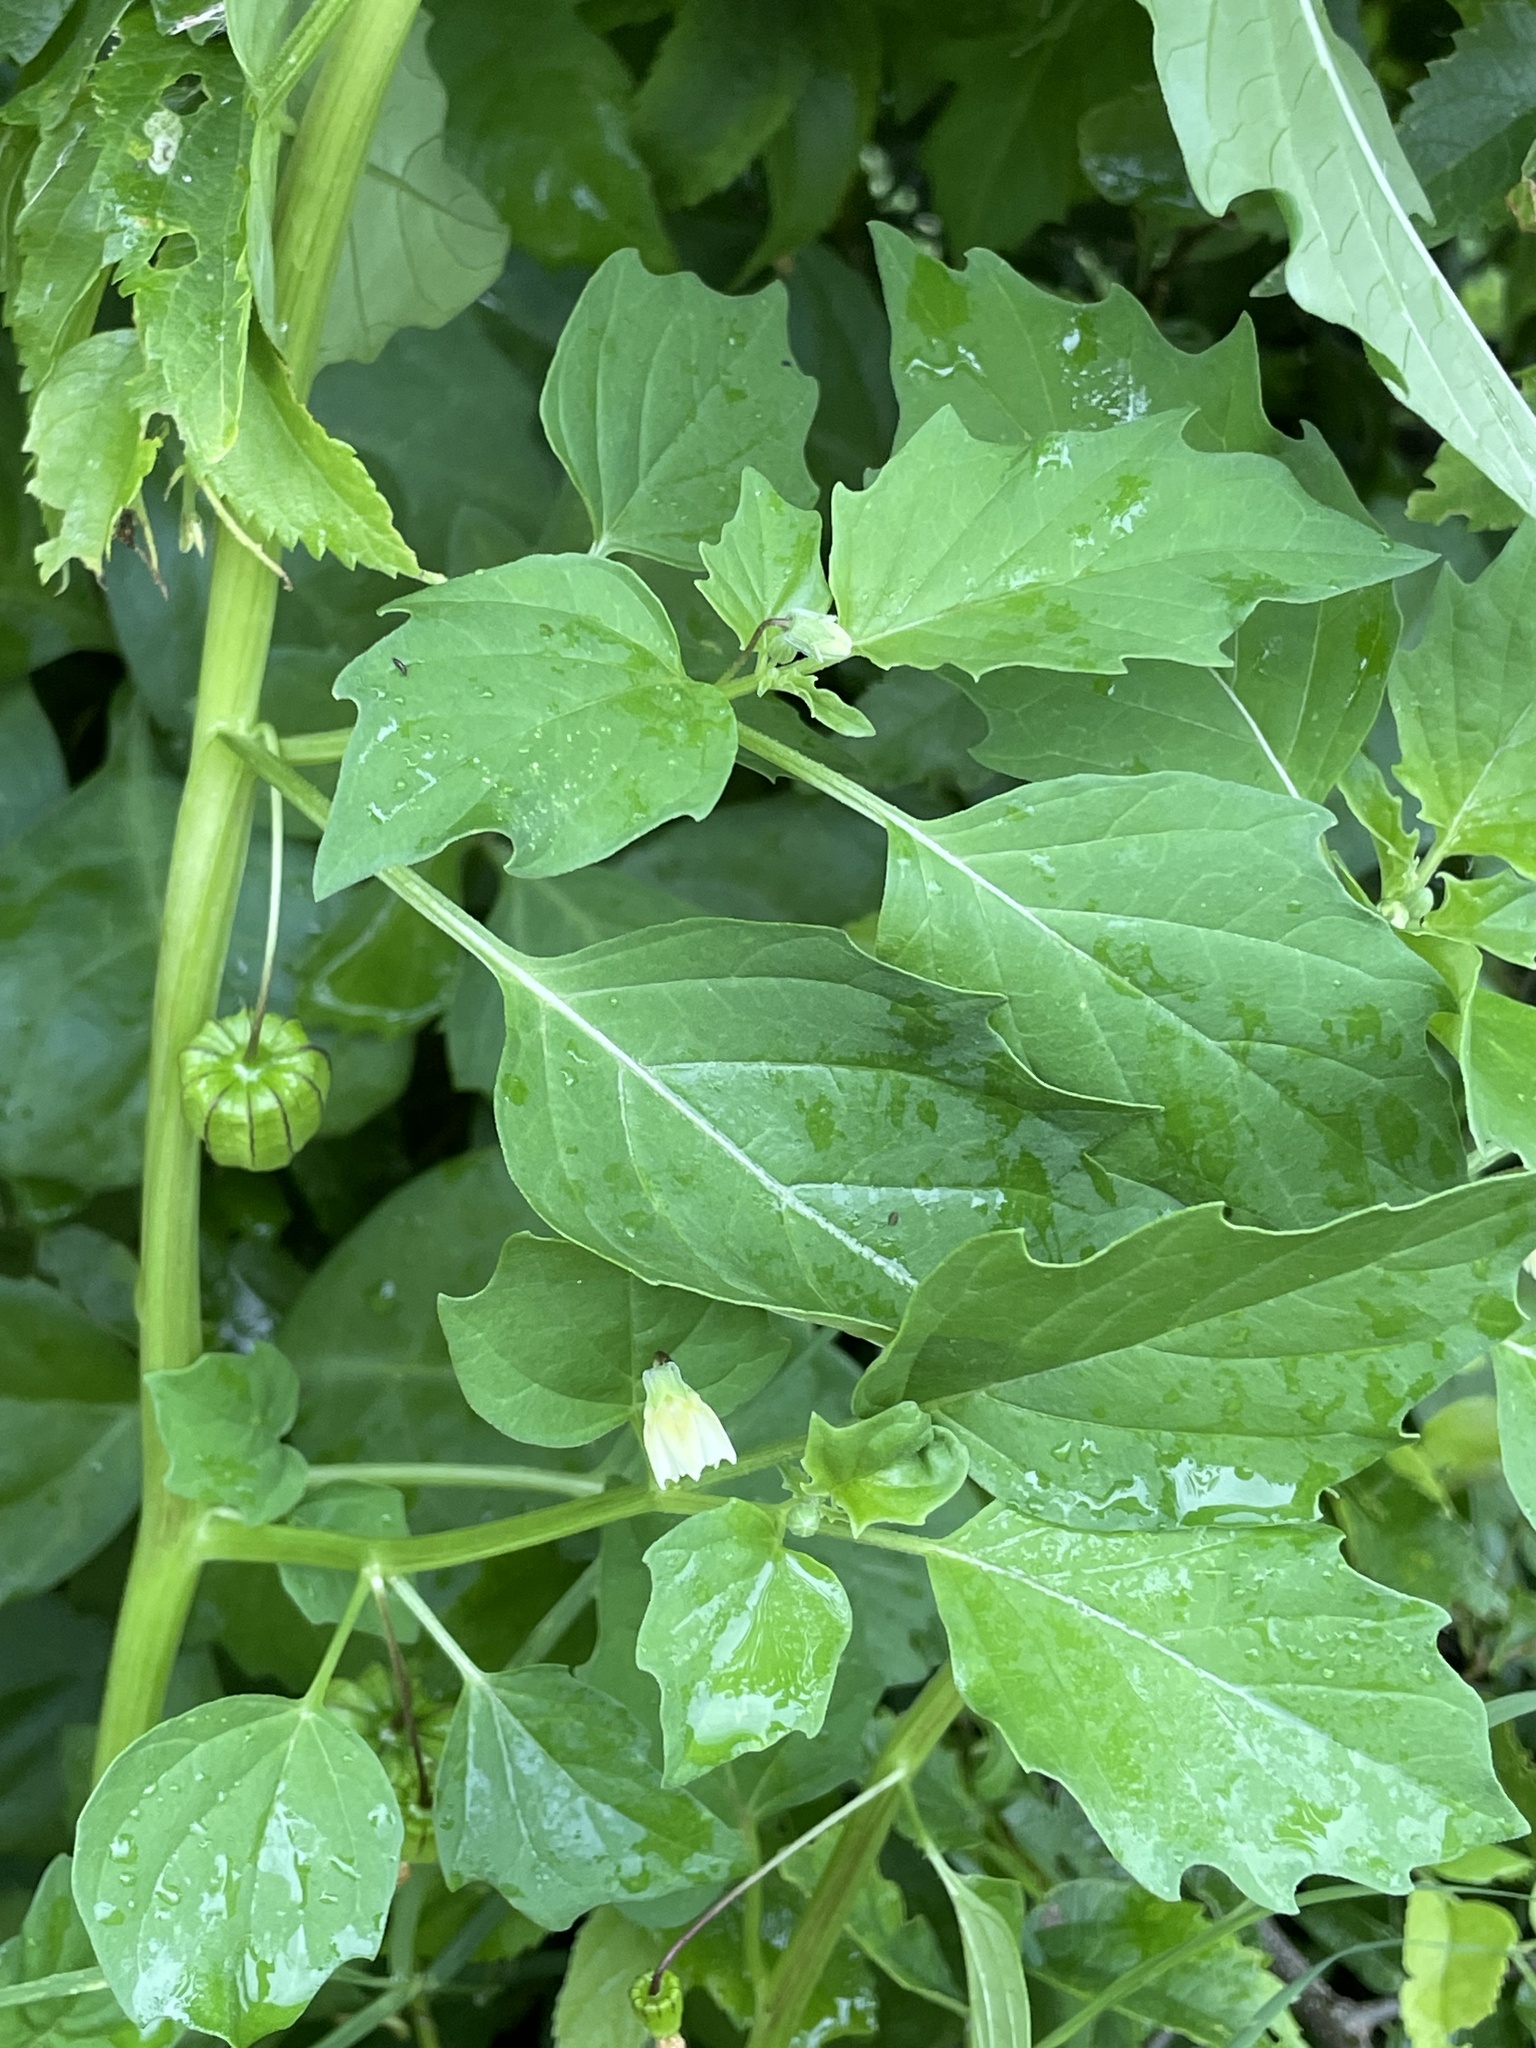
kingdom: Plantae
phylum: Tracheophyta
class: Magnoliopsida
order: Solanales
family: Solanaceae
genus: Physalis
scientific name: Physalis angulata
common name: Angular winter-cherry
